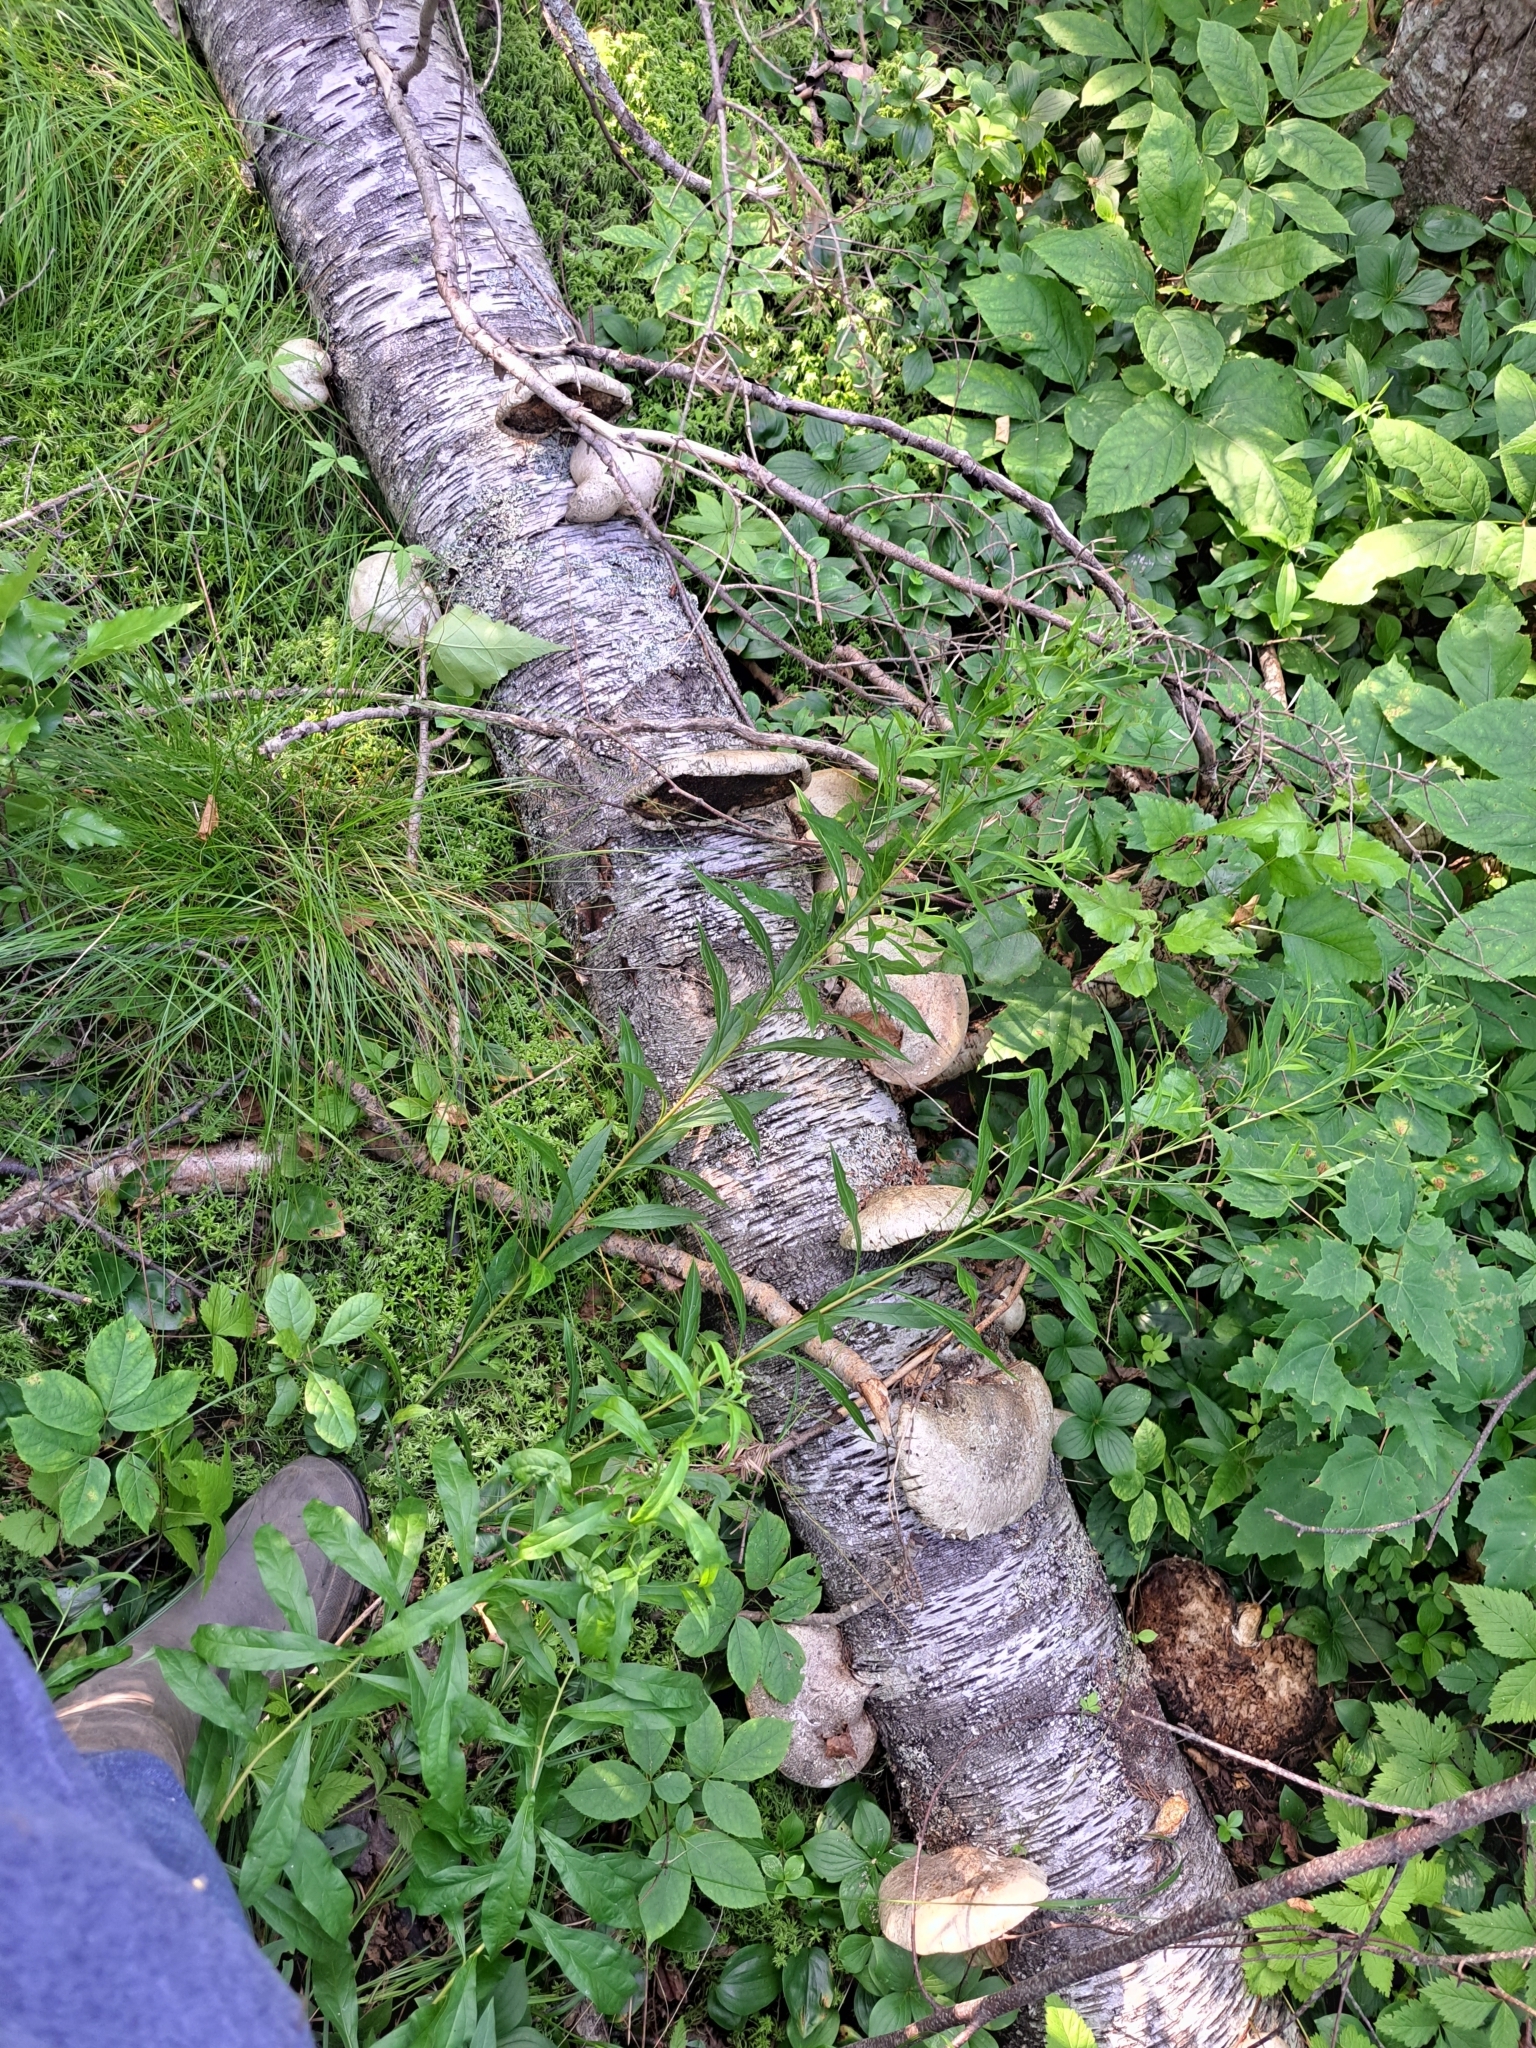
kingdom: Fungi
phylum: Basidiomycota
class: Agaricomycetes
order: Polyporales
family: Fomitopsidaceae
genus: Fomitopsis
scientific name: Fomitopsis betulina
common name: Birch polypore
